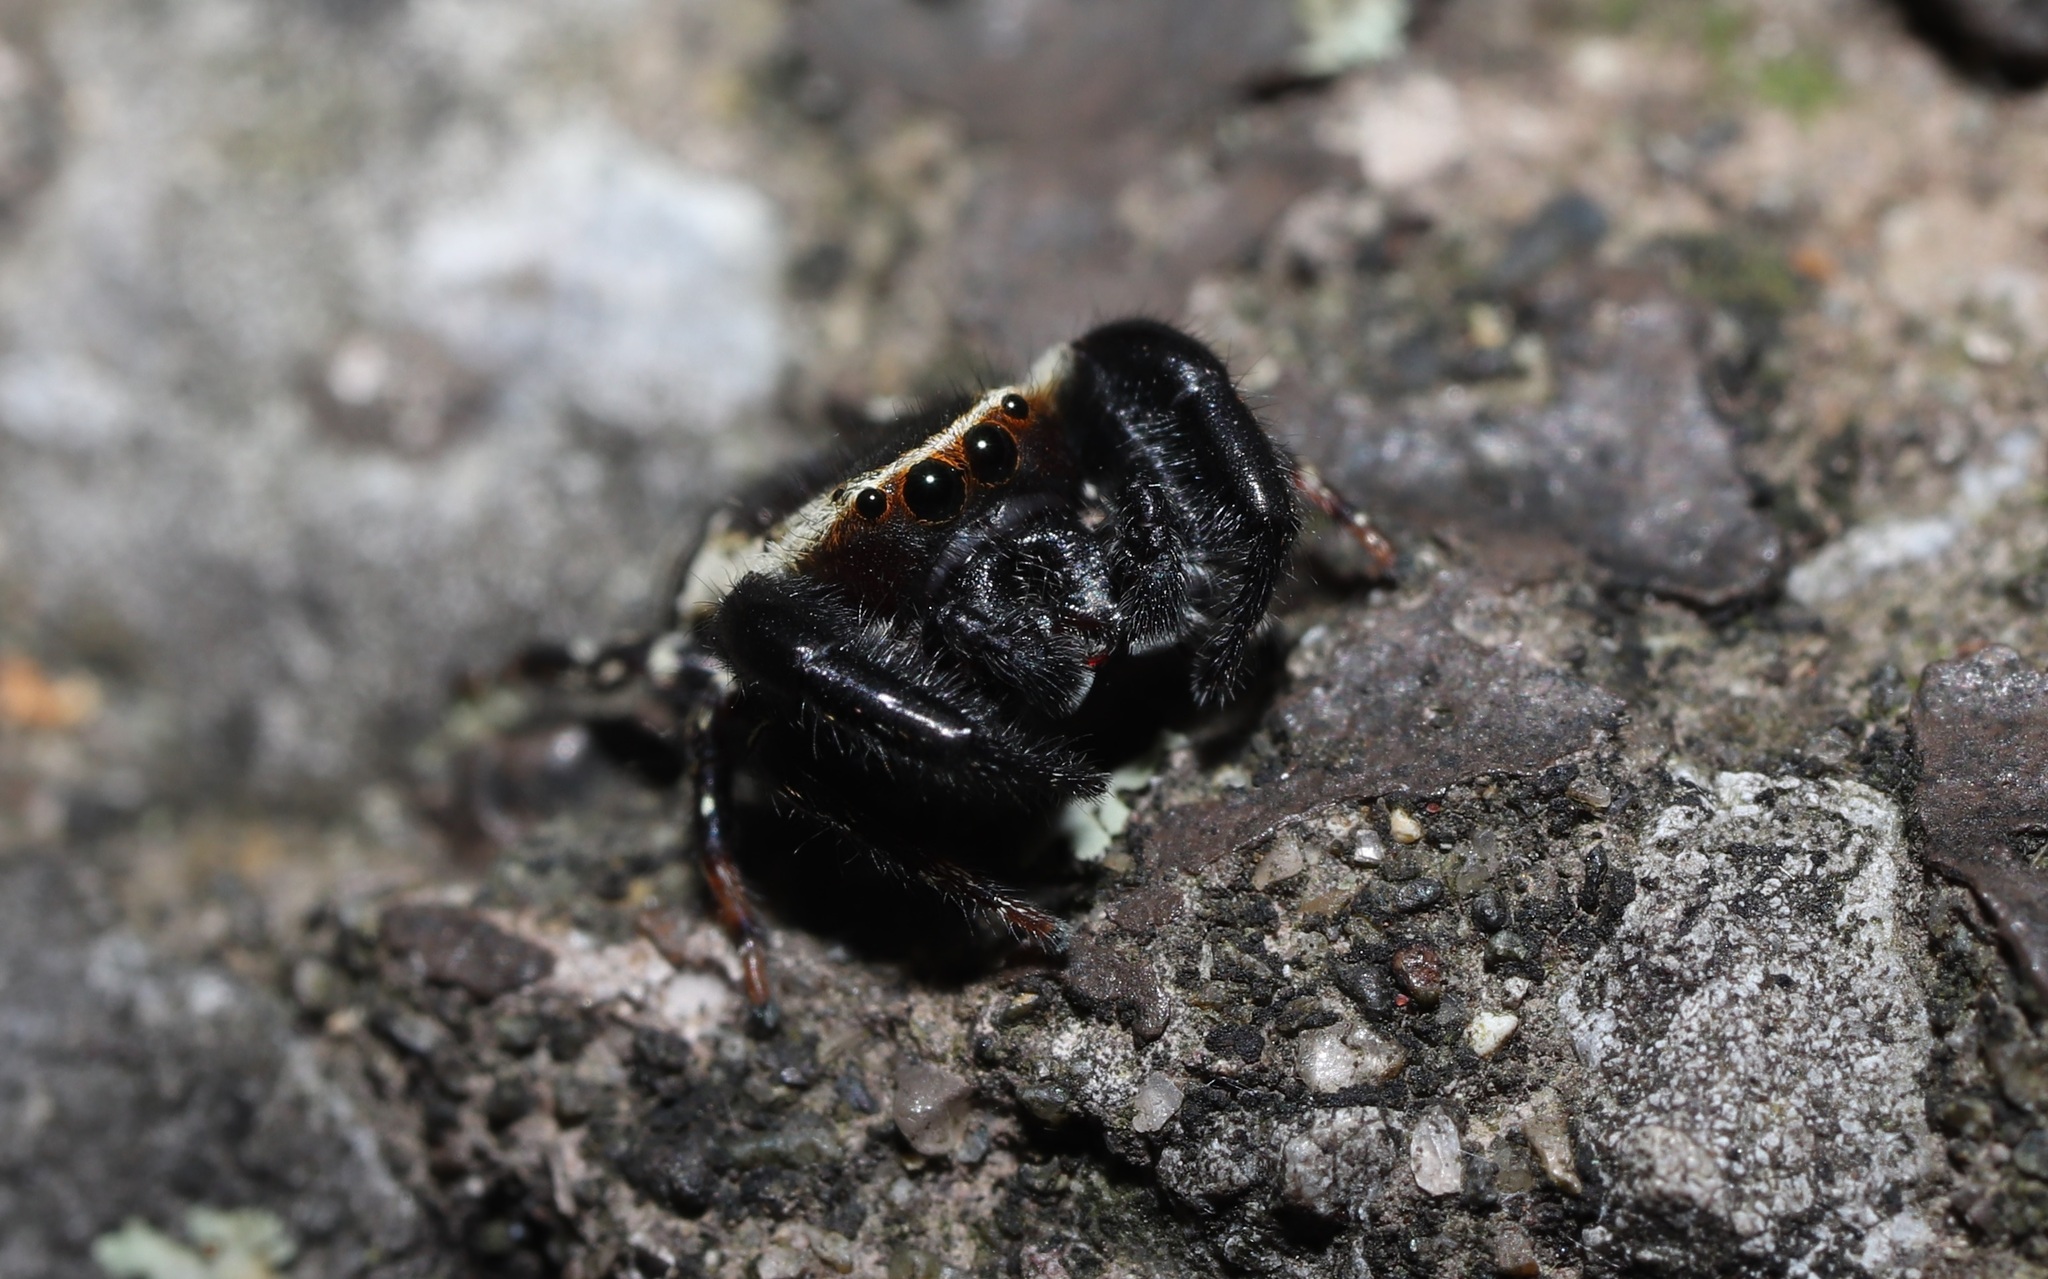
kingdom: Animalia
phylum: Arthropoda
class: Arachnida
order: Araneae
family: Salticidae
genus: Rhene
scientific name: Rhene atrata
